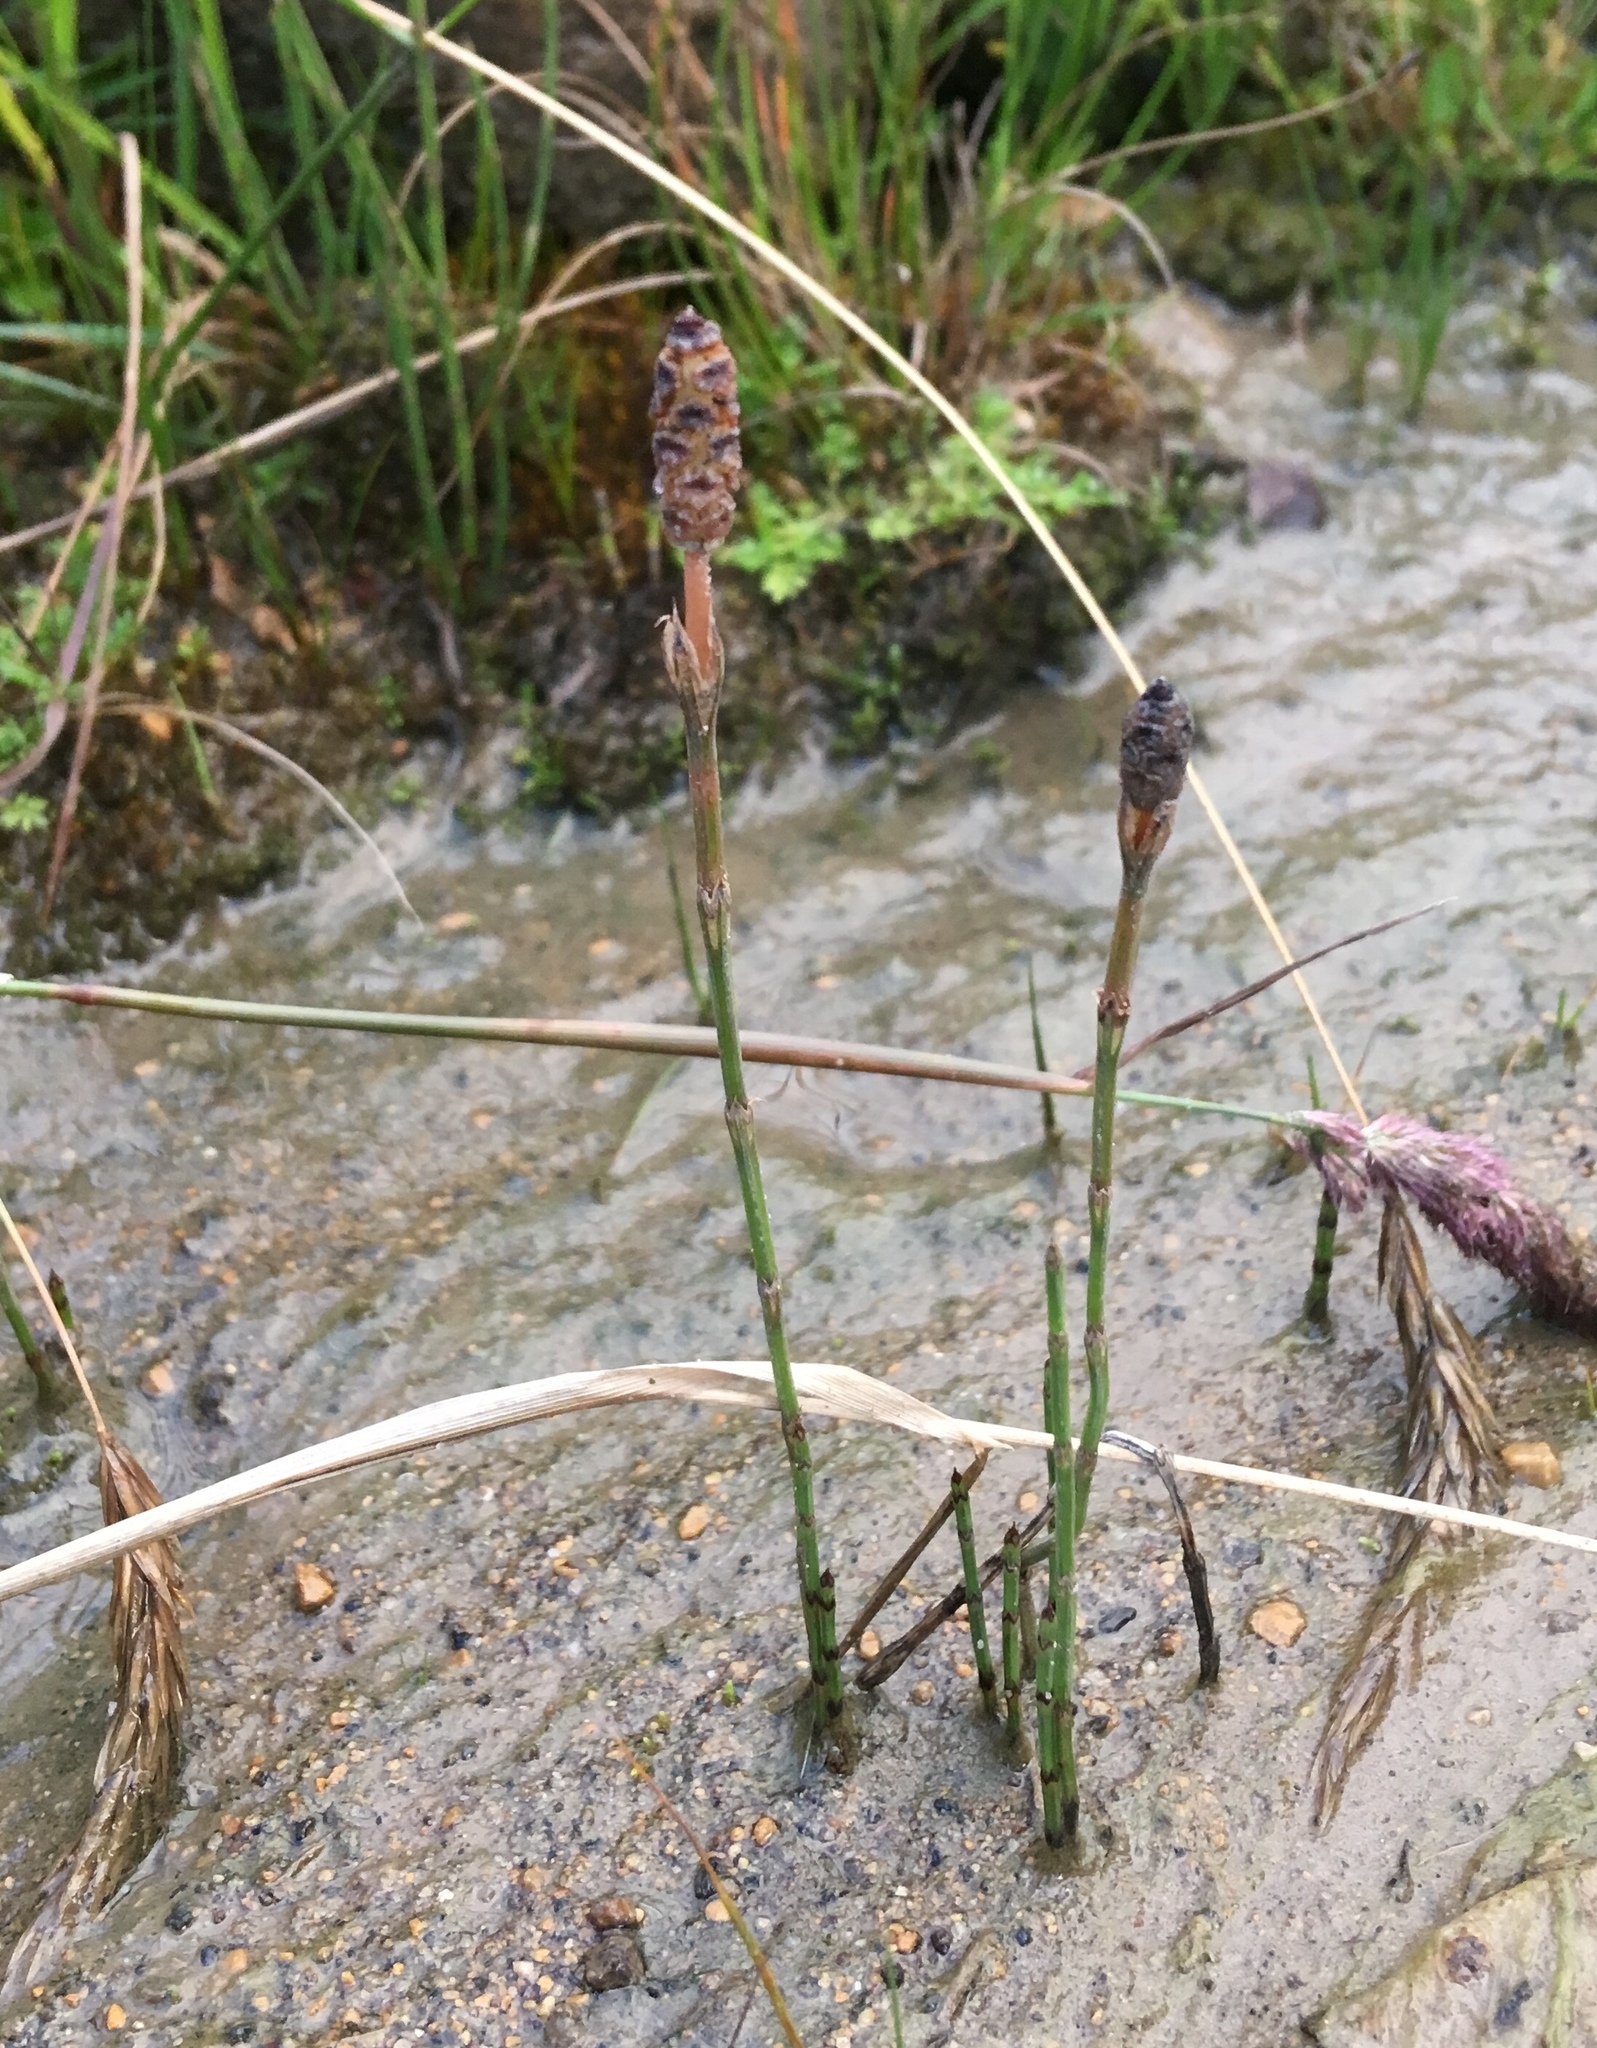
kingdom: Plantae
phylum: Tracheophyta
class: Polypodiopsida
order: Equisetales
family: Equisetaceae
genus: Equisetum
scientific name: Equisetum bogotense
